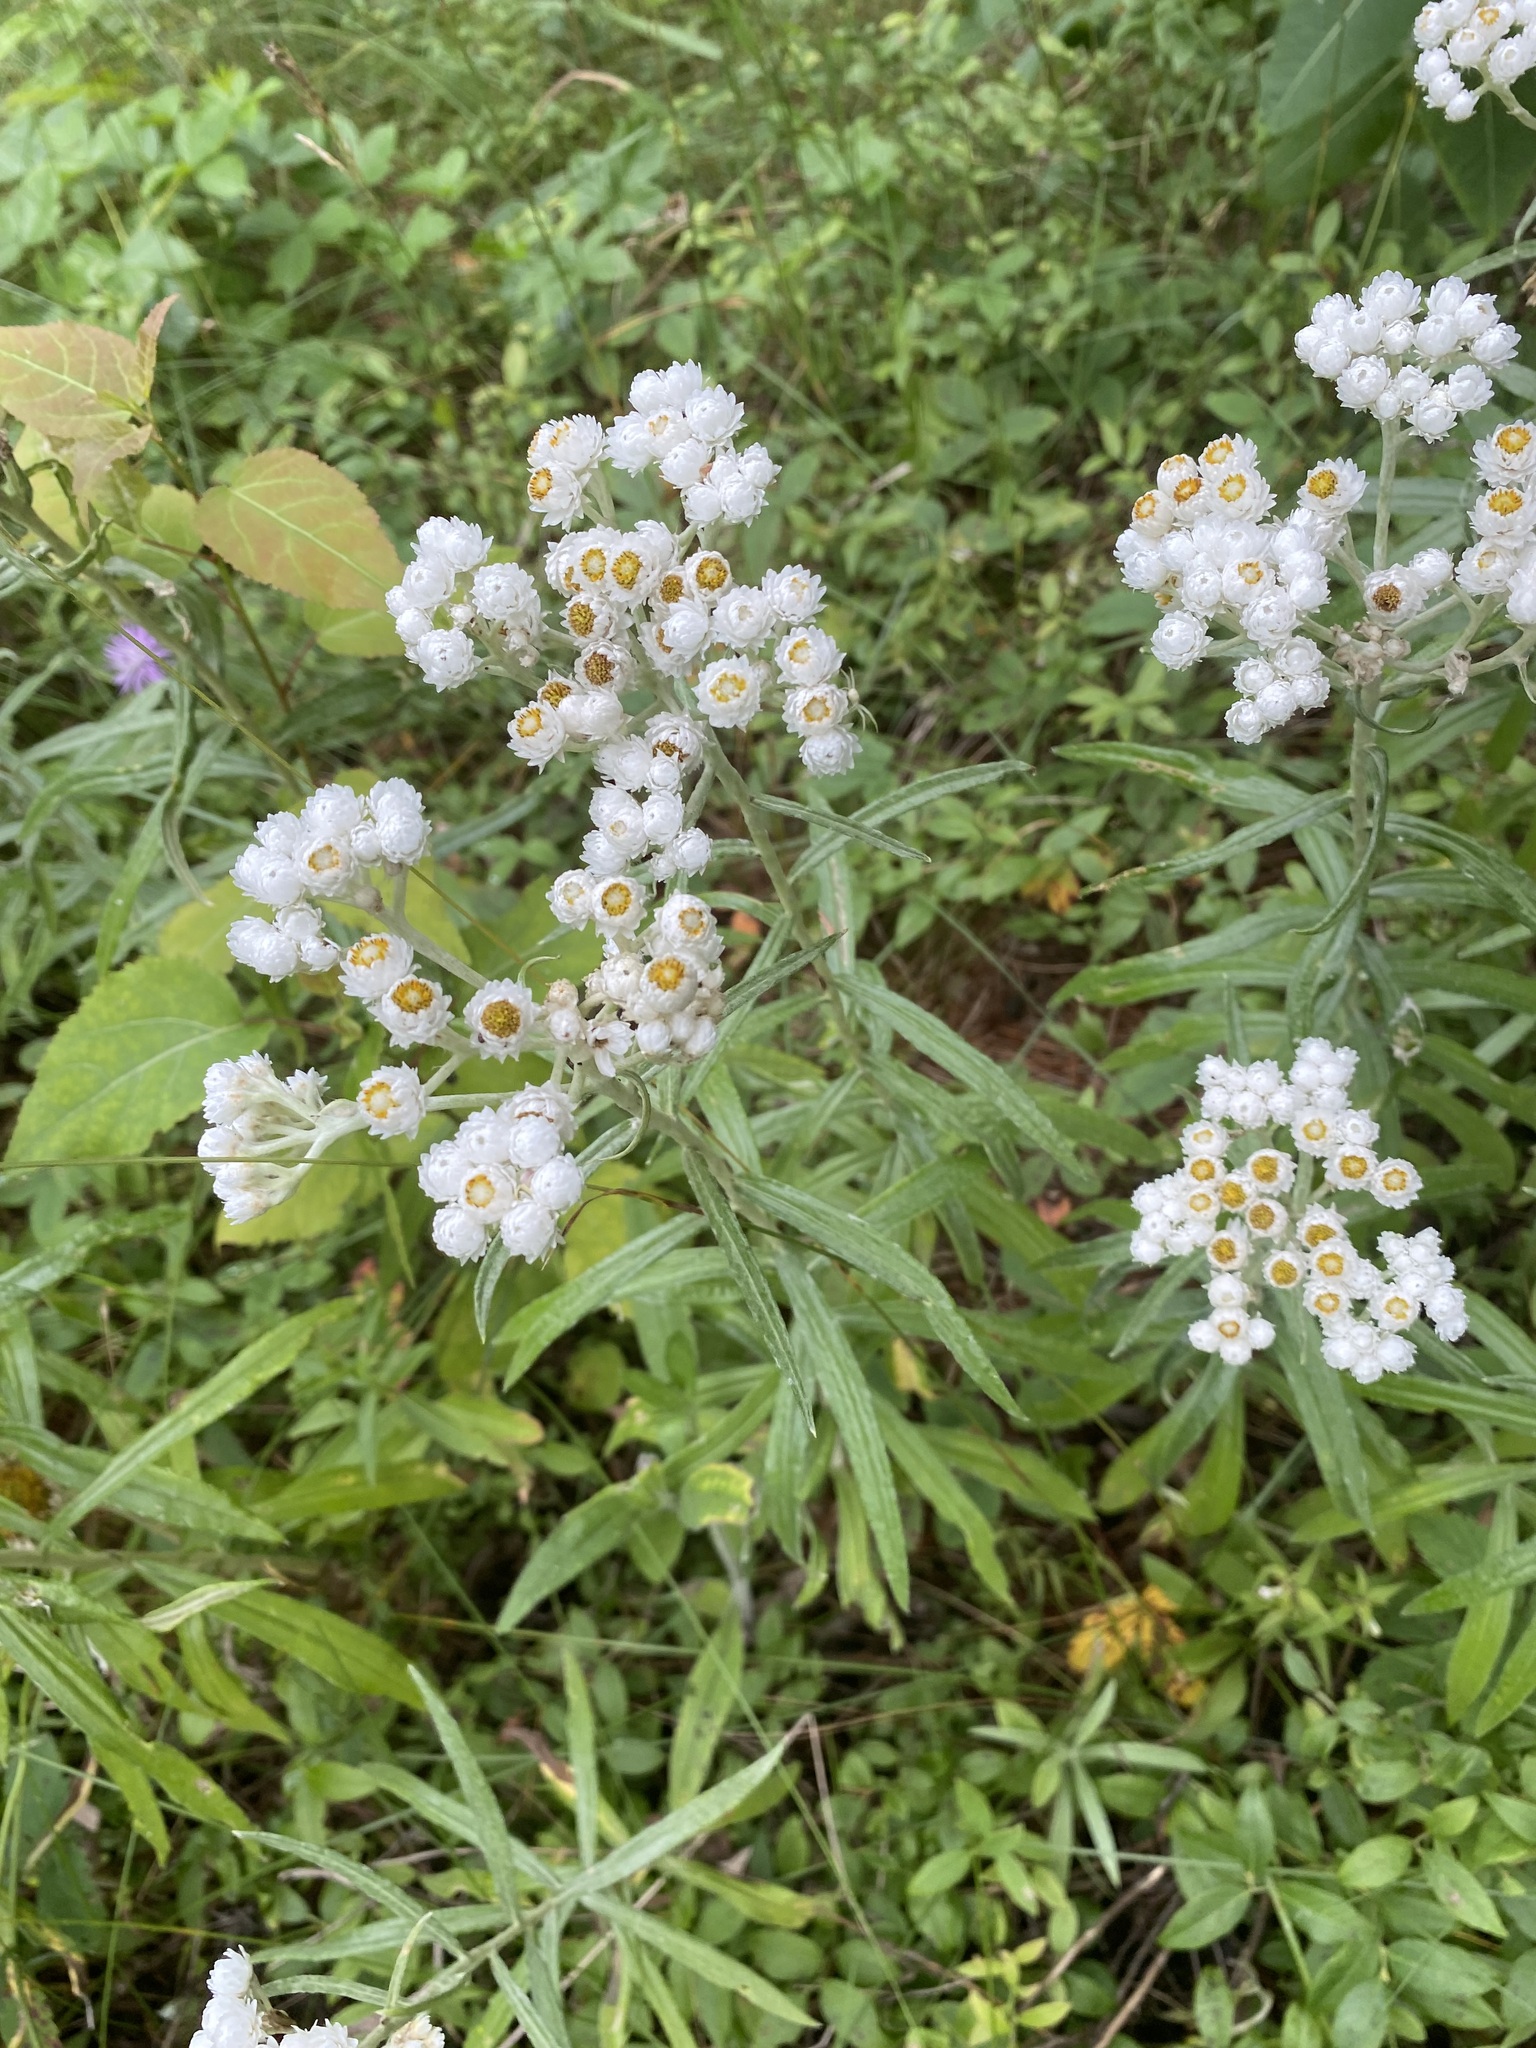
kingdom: Plantae
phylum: Tracheophyta
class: Magnoliopsida
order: Asterales
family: Asteraceae
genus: Anaphalis
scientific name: Anaphalis margaritacea
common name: Pearly everlasting
